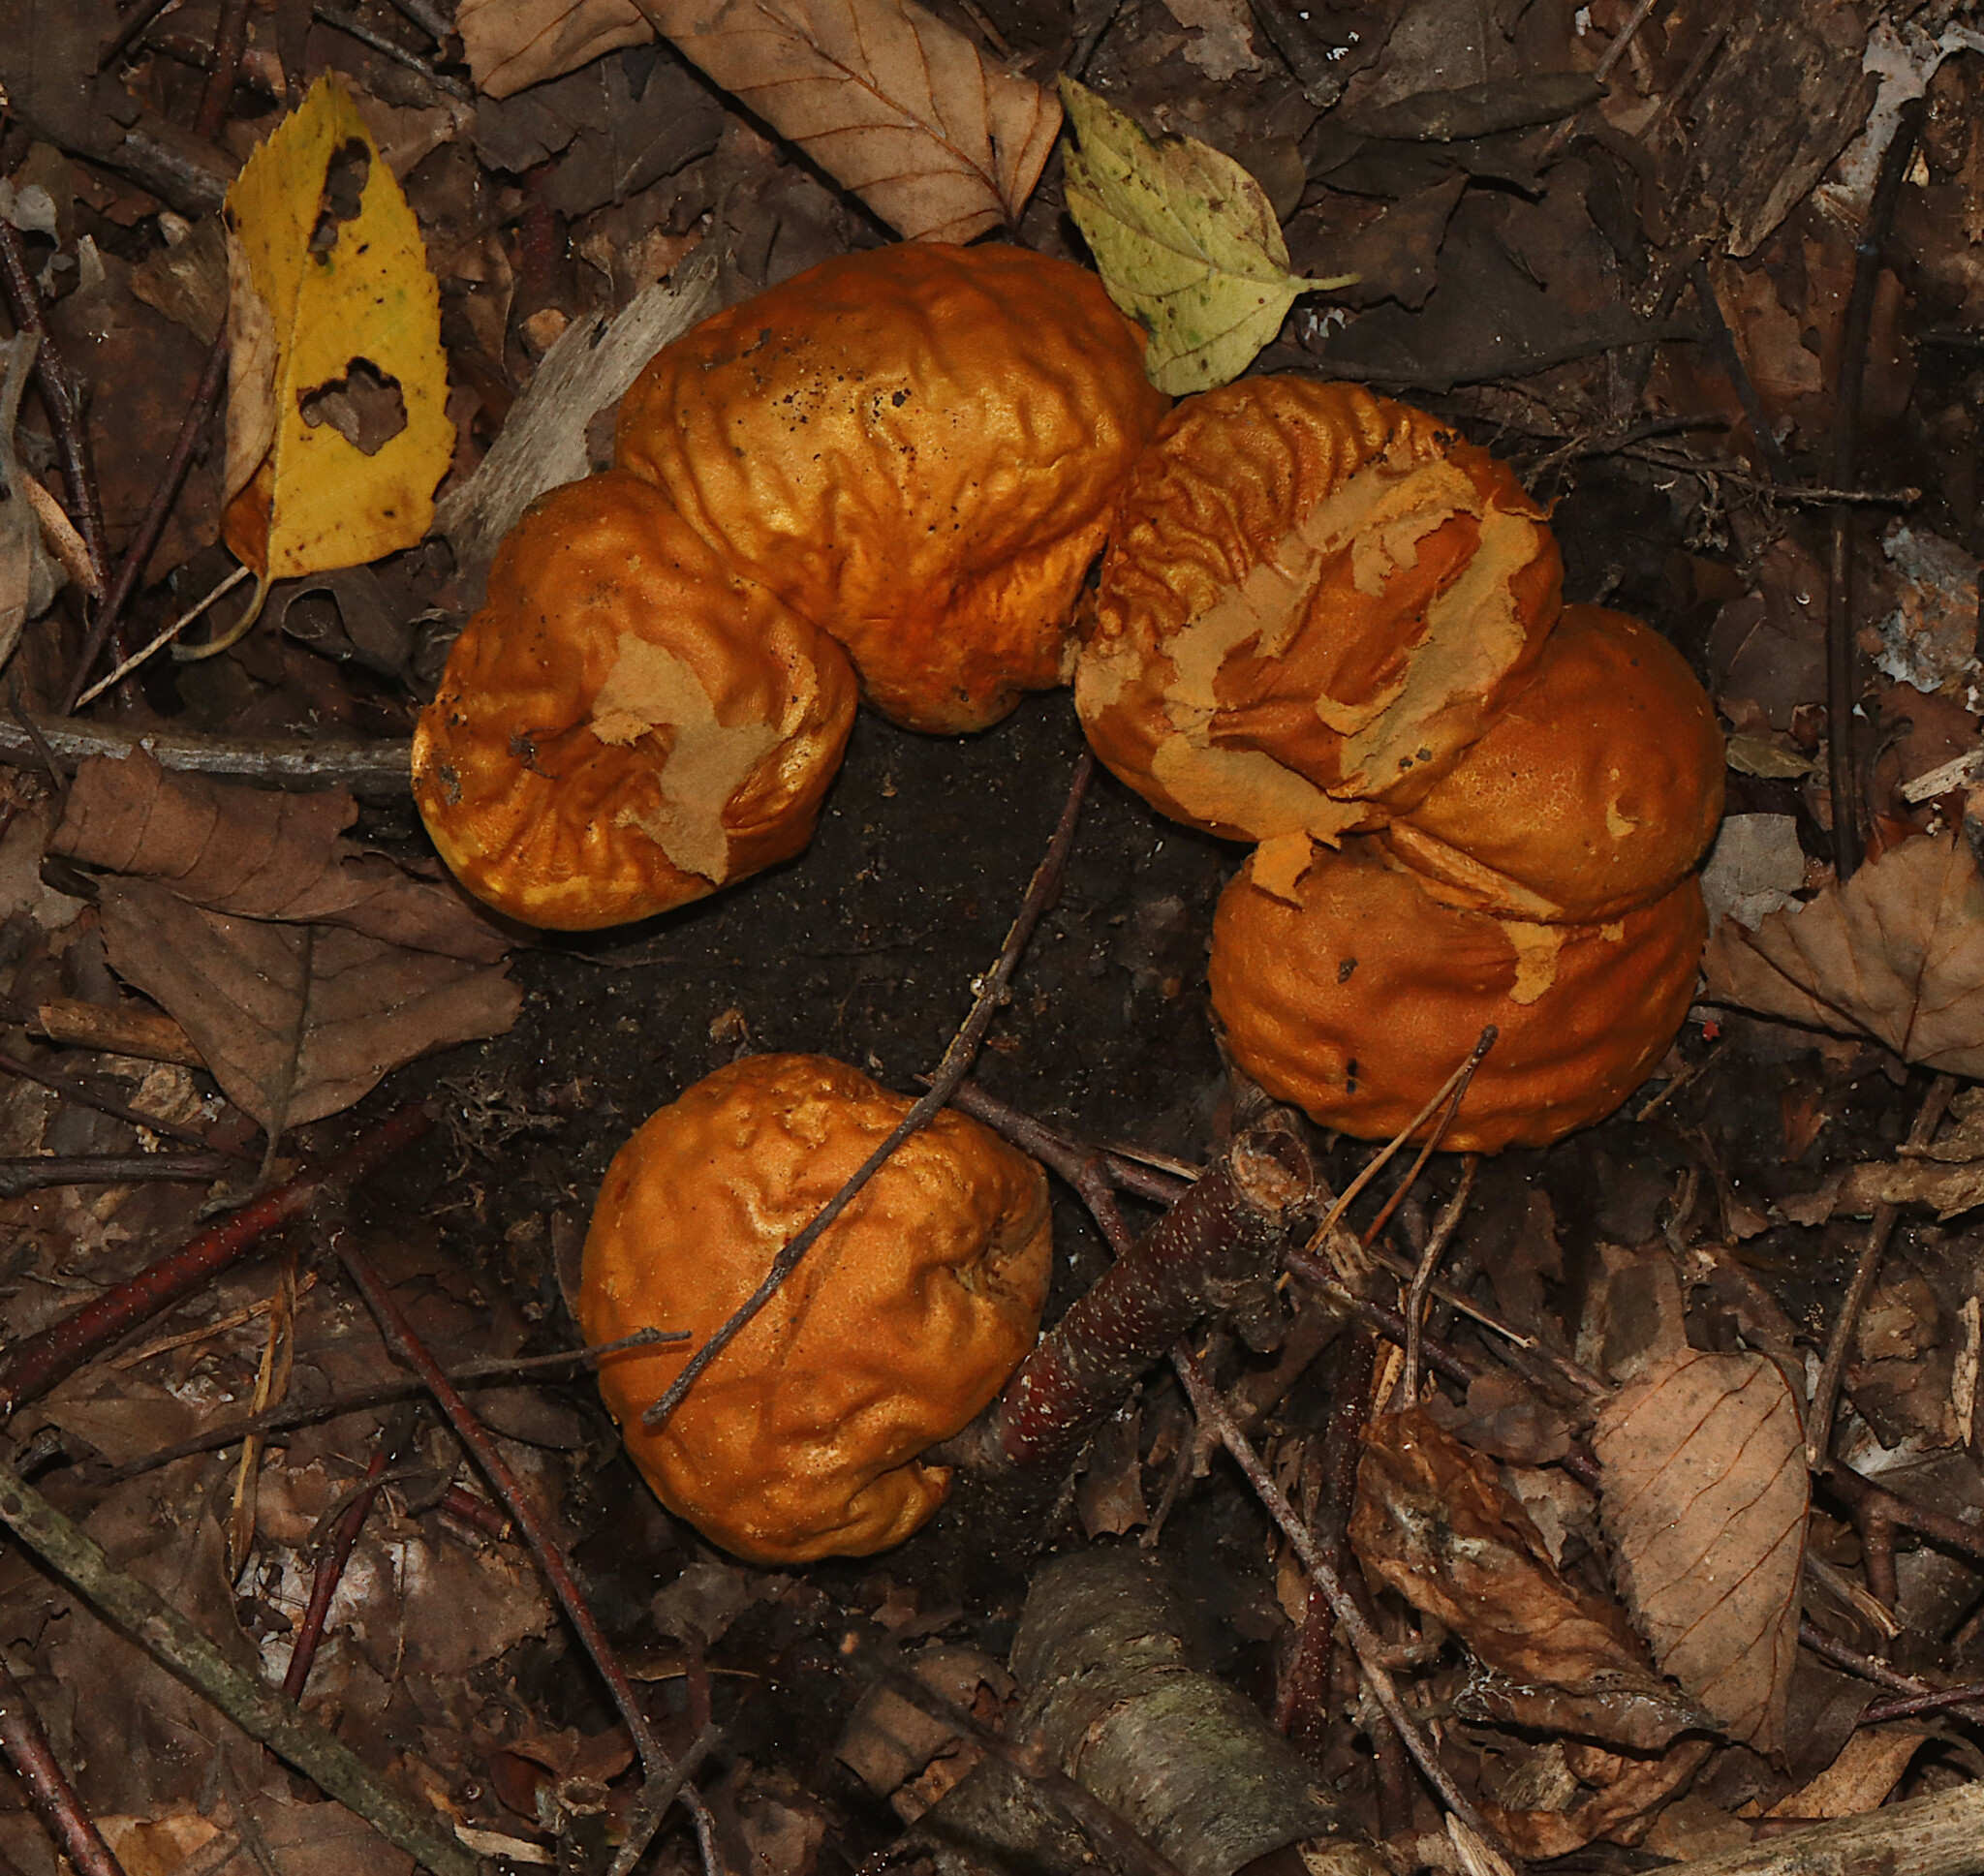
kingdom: Fungi
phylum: Basidiomycota
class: Agaricomycetes
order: Agaricales
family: Lycoperdaceae
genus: Calvatia
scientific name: Calvatia rugosa
